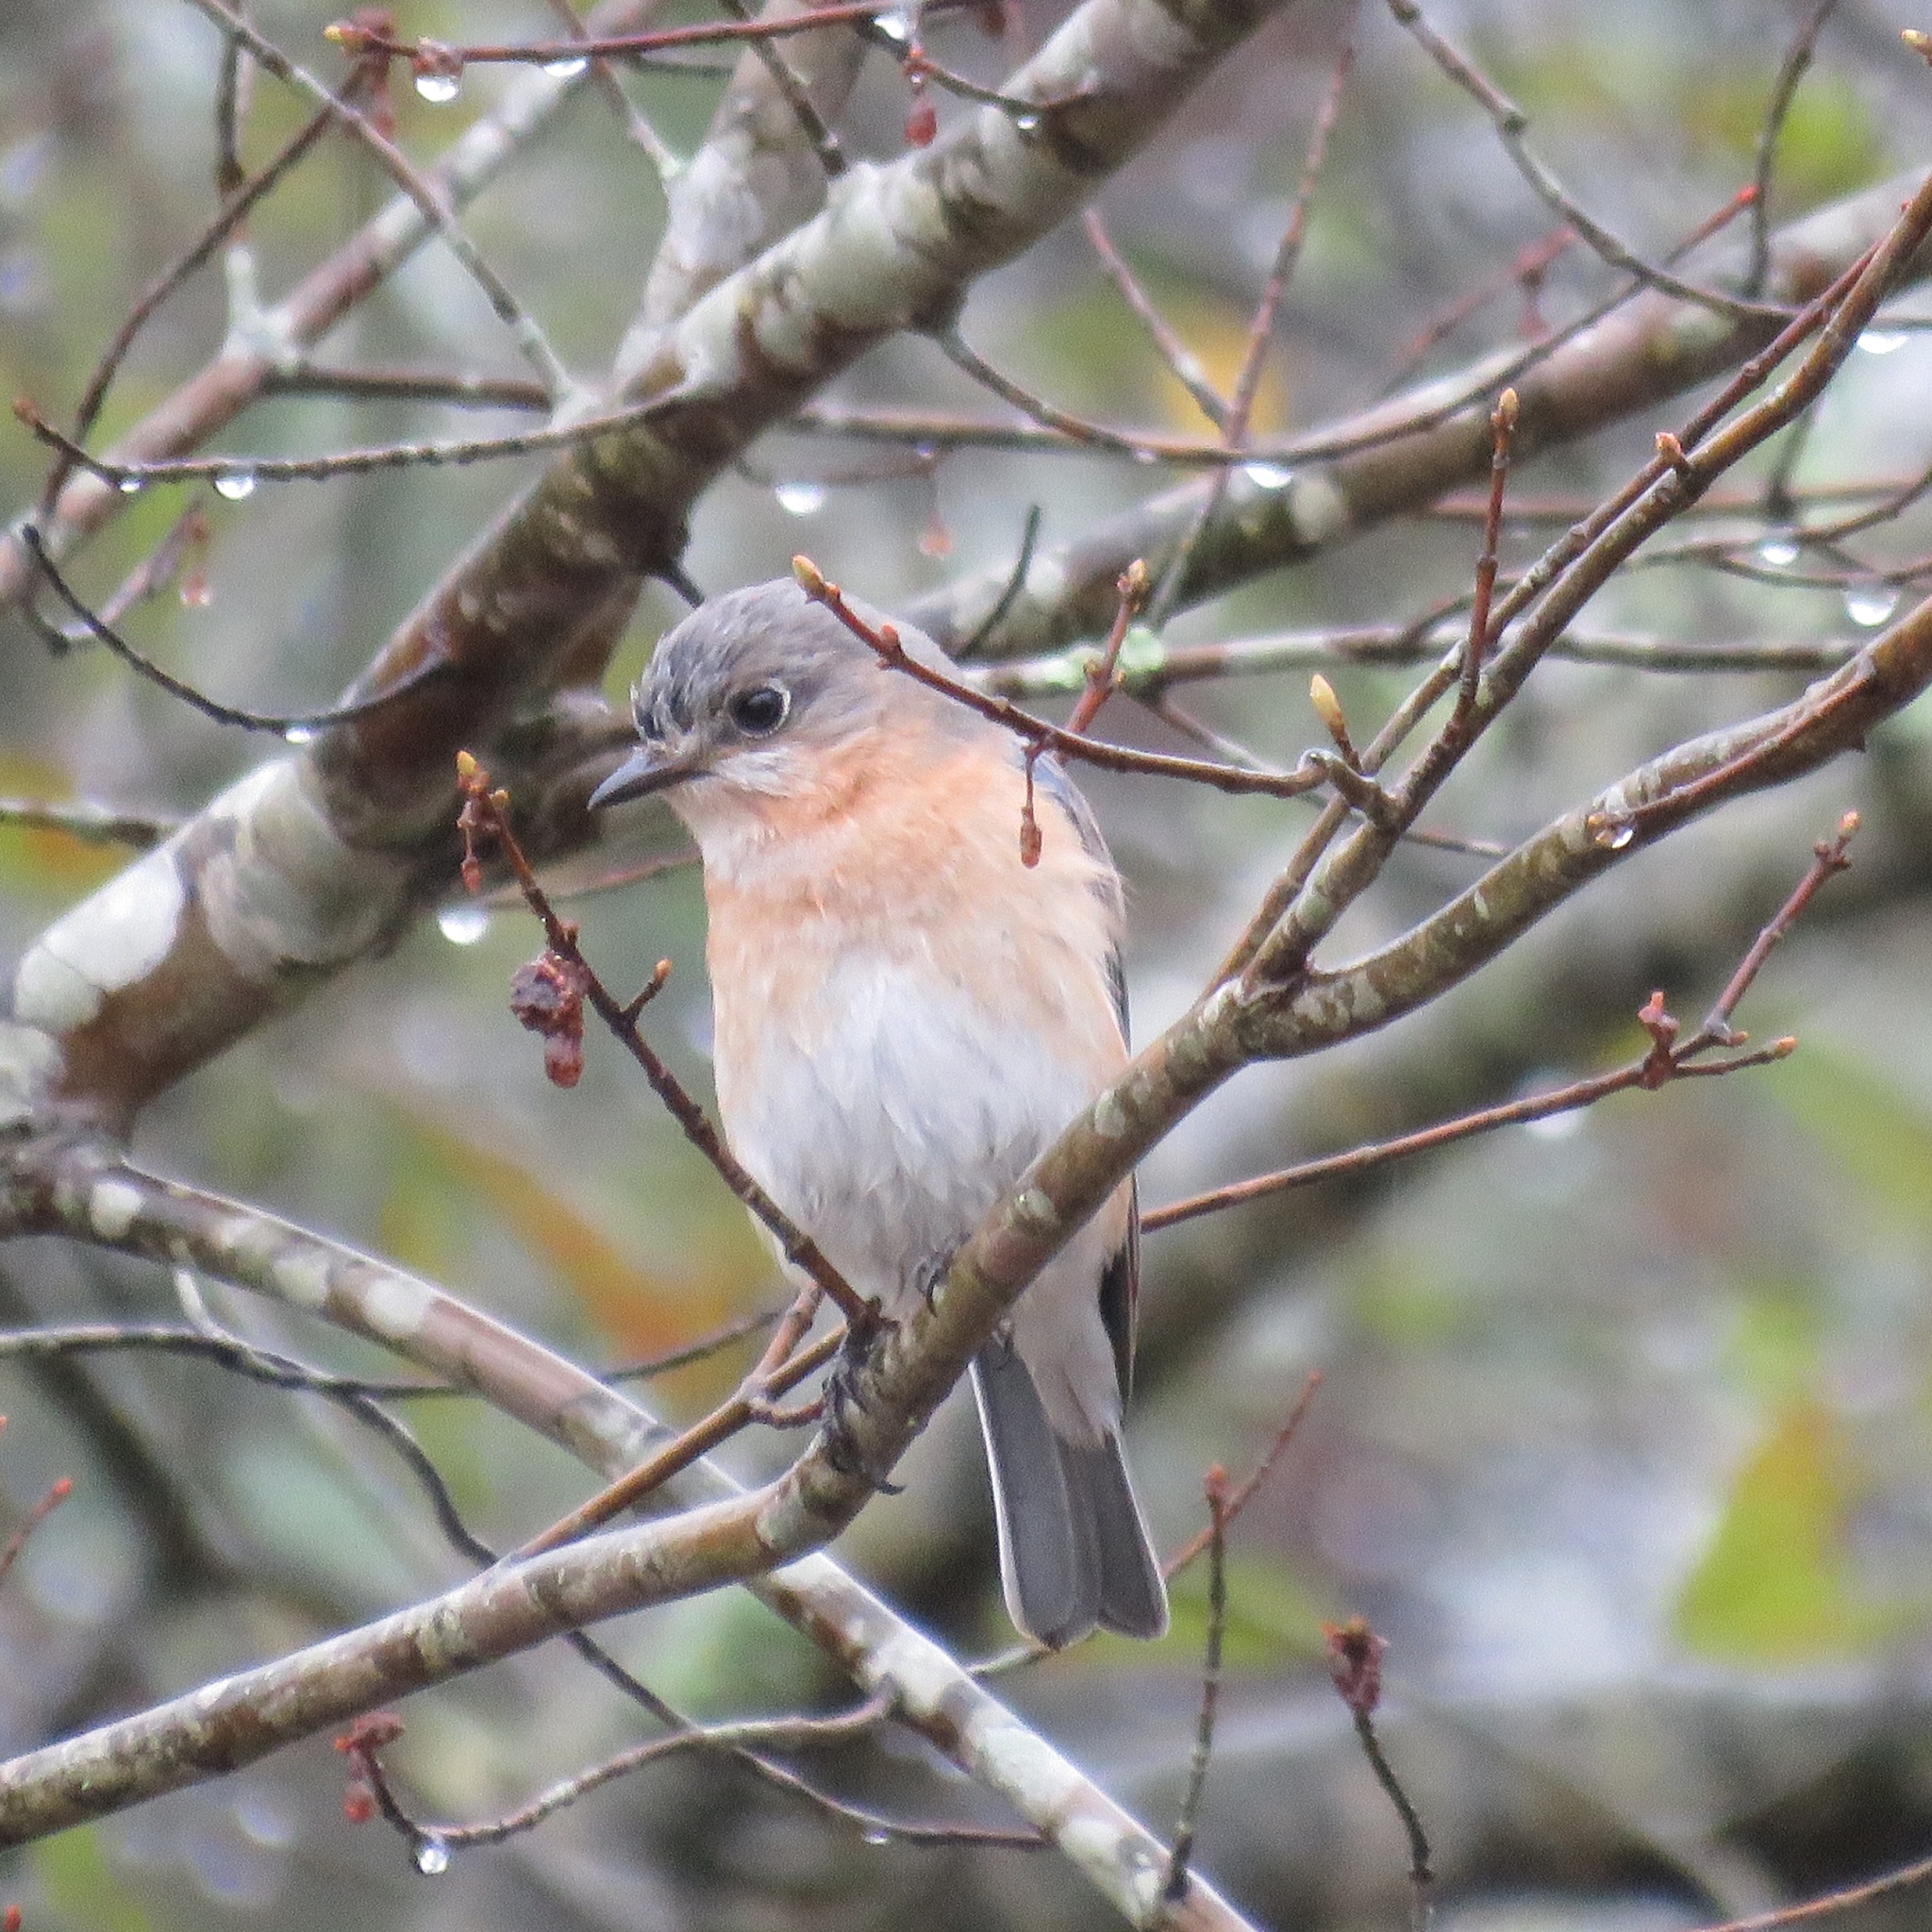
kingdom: Animalia
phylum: Chordata
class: Aves
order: Passeriformes
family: Turdidae
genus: Sialia
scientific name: Sialia sialis
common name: Eastern bluebird
